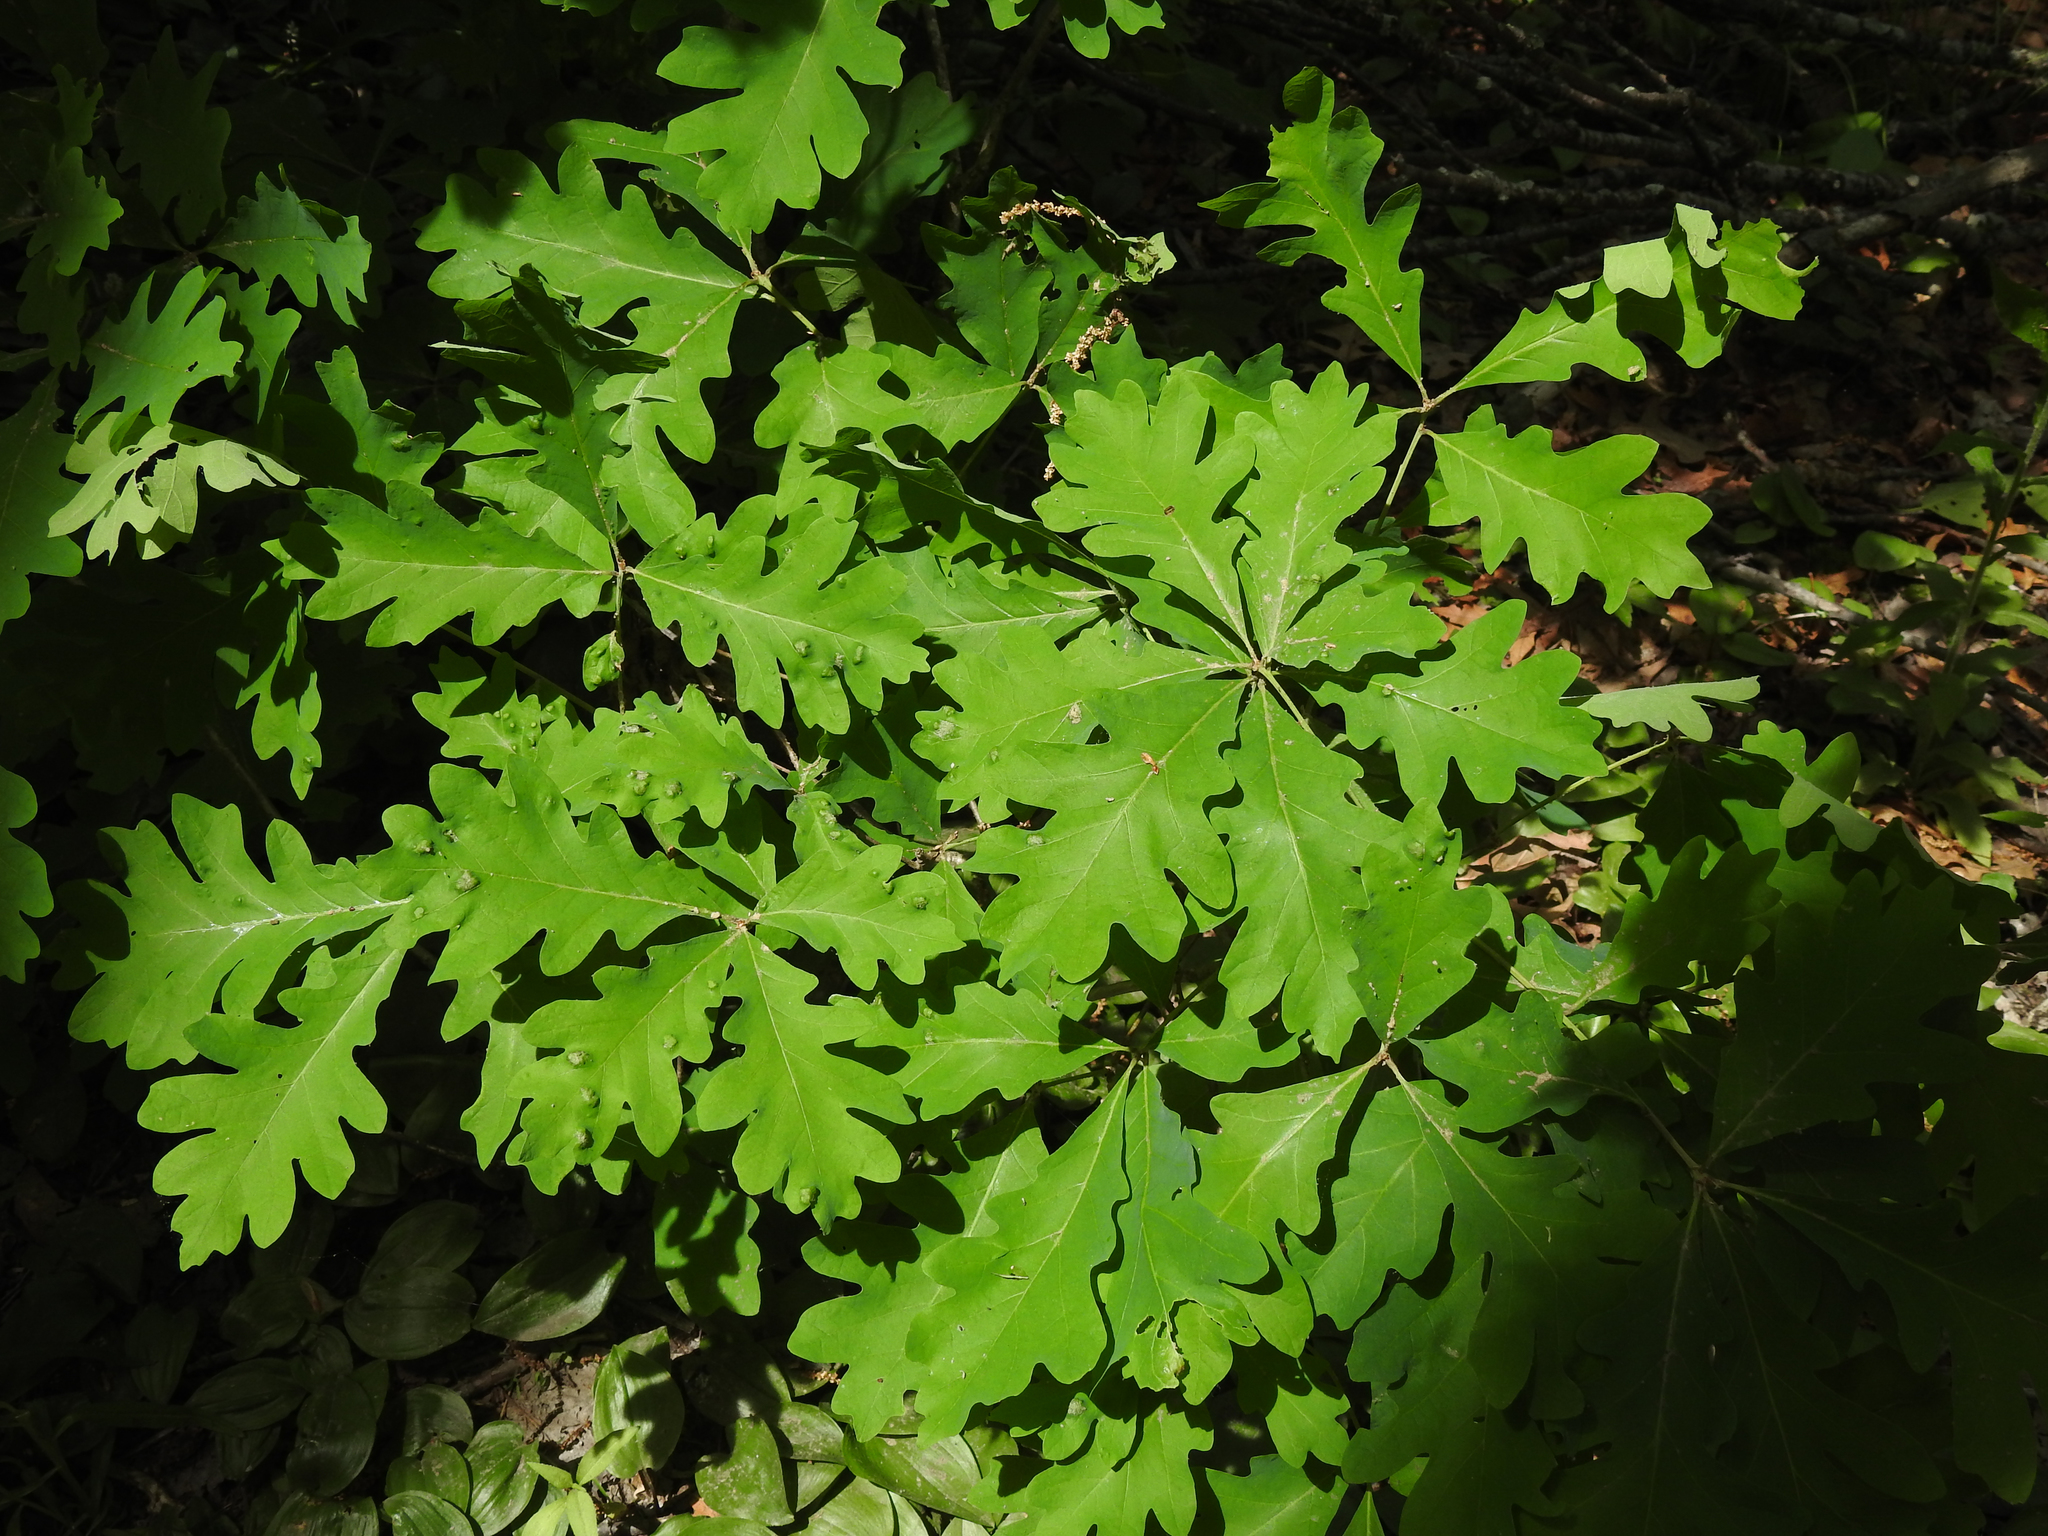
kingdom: Plantae
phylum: Tracheophyta
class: Magnoliopsida
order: Fagales
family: Fagaceae
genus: Quercus
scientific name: Quercus alba
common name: White oak
